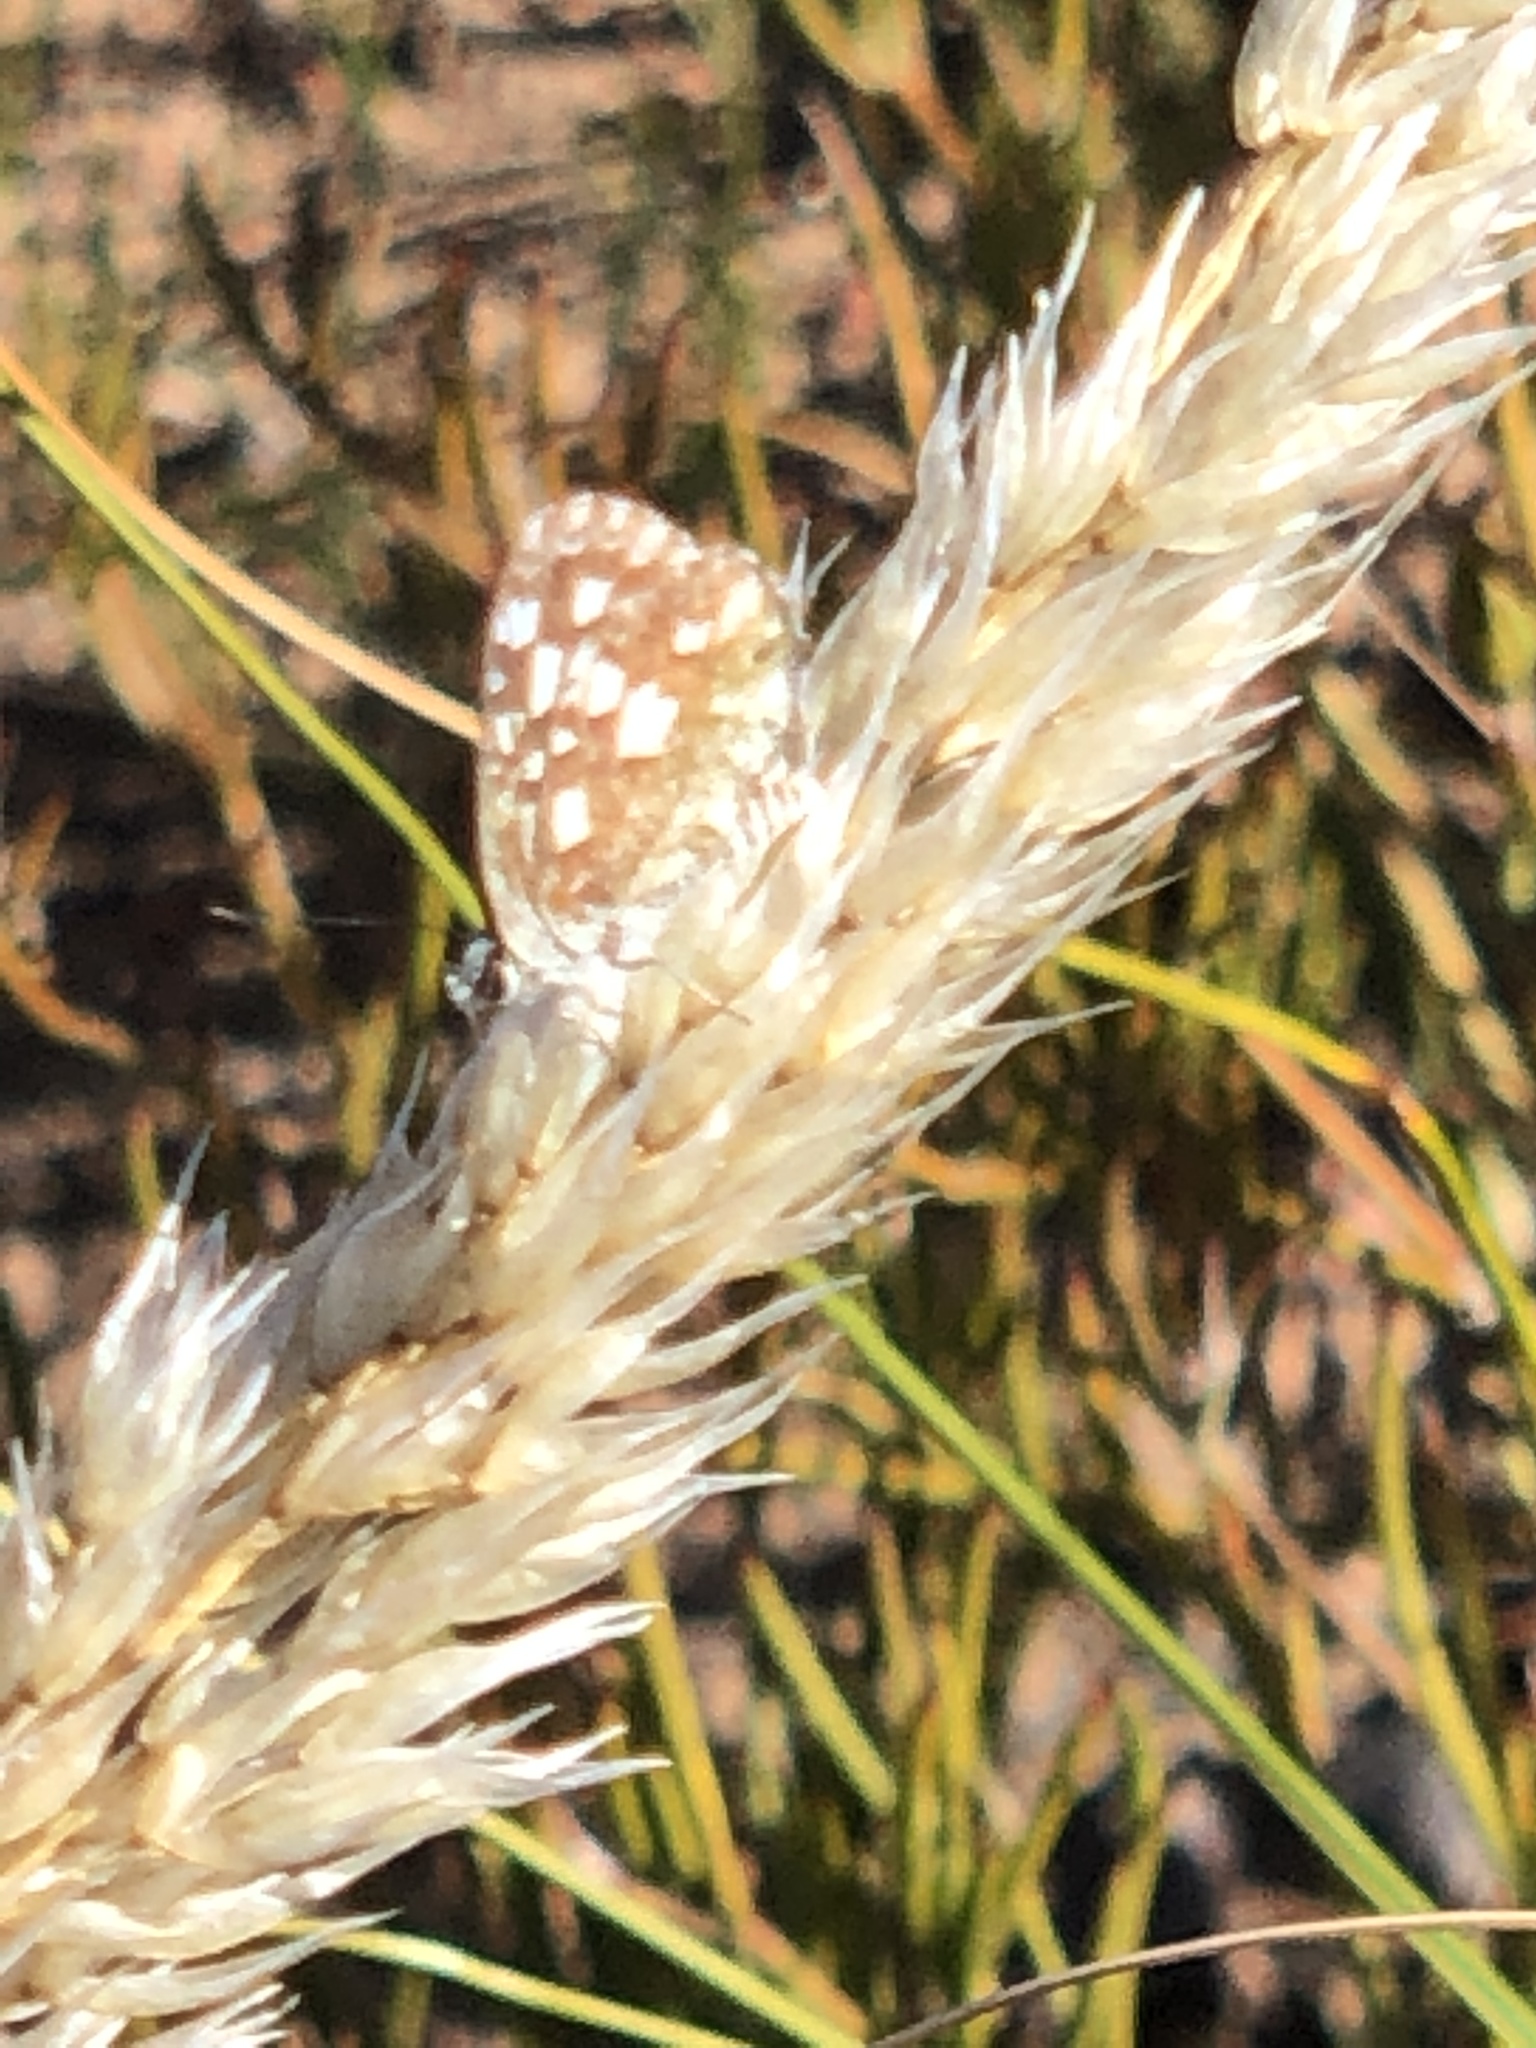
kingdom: Animalia
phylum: Arthropoda
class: Insecta
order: Lepidoptera
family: Lycaenidae
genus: Tarucus
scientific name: Tarucus thespis
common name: Vivid dotted blue
